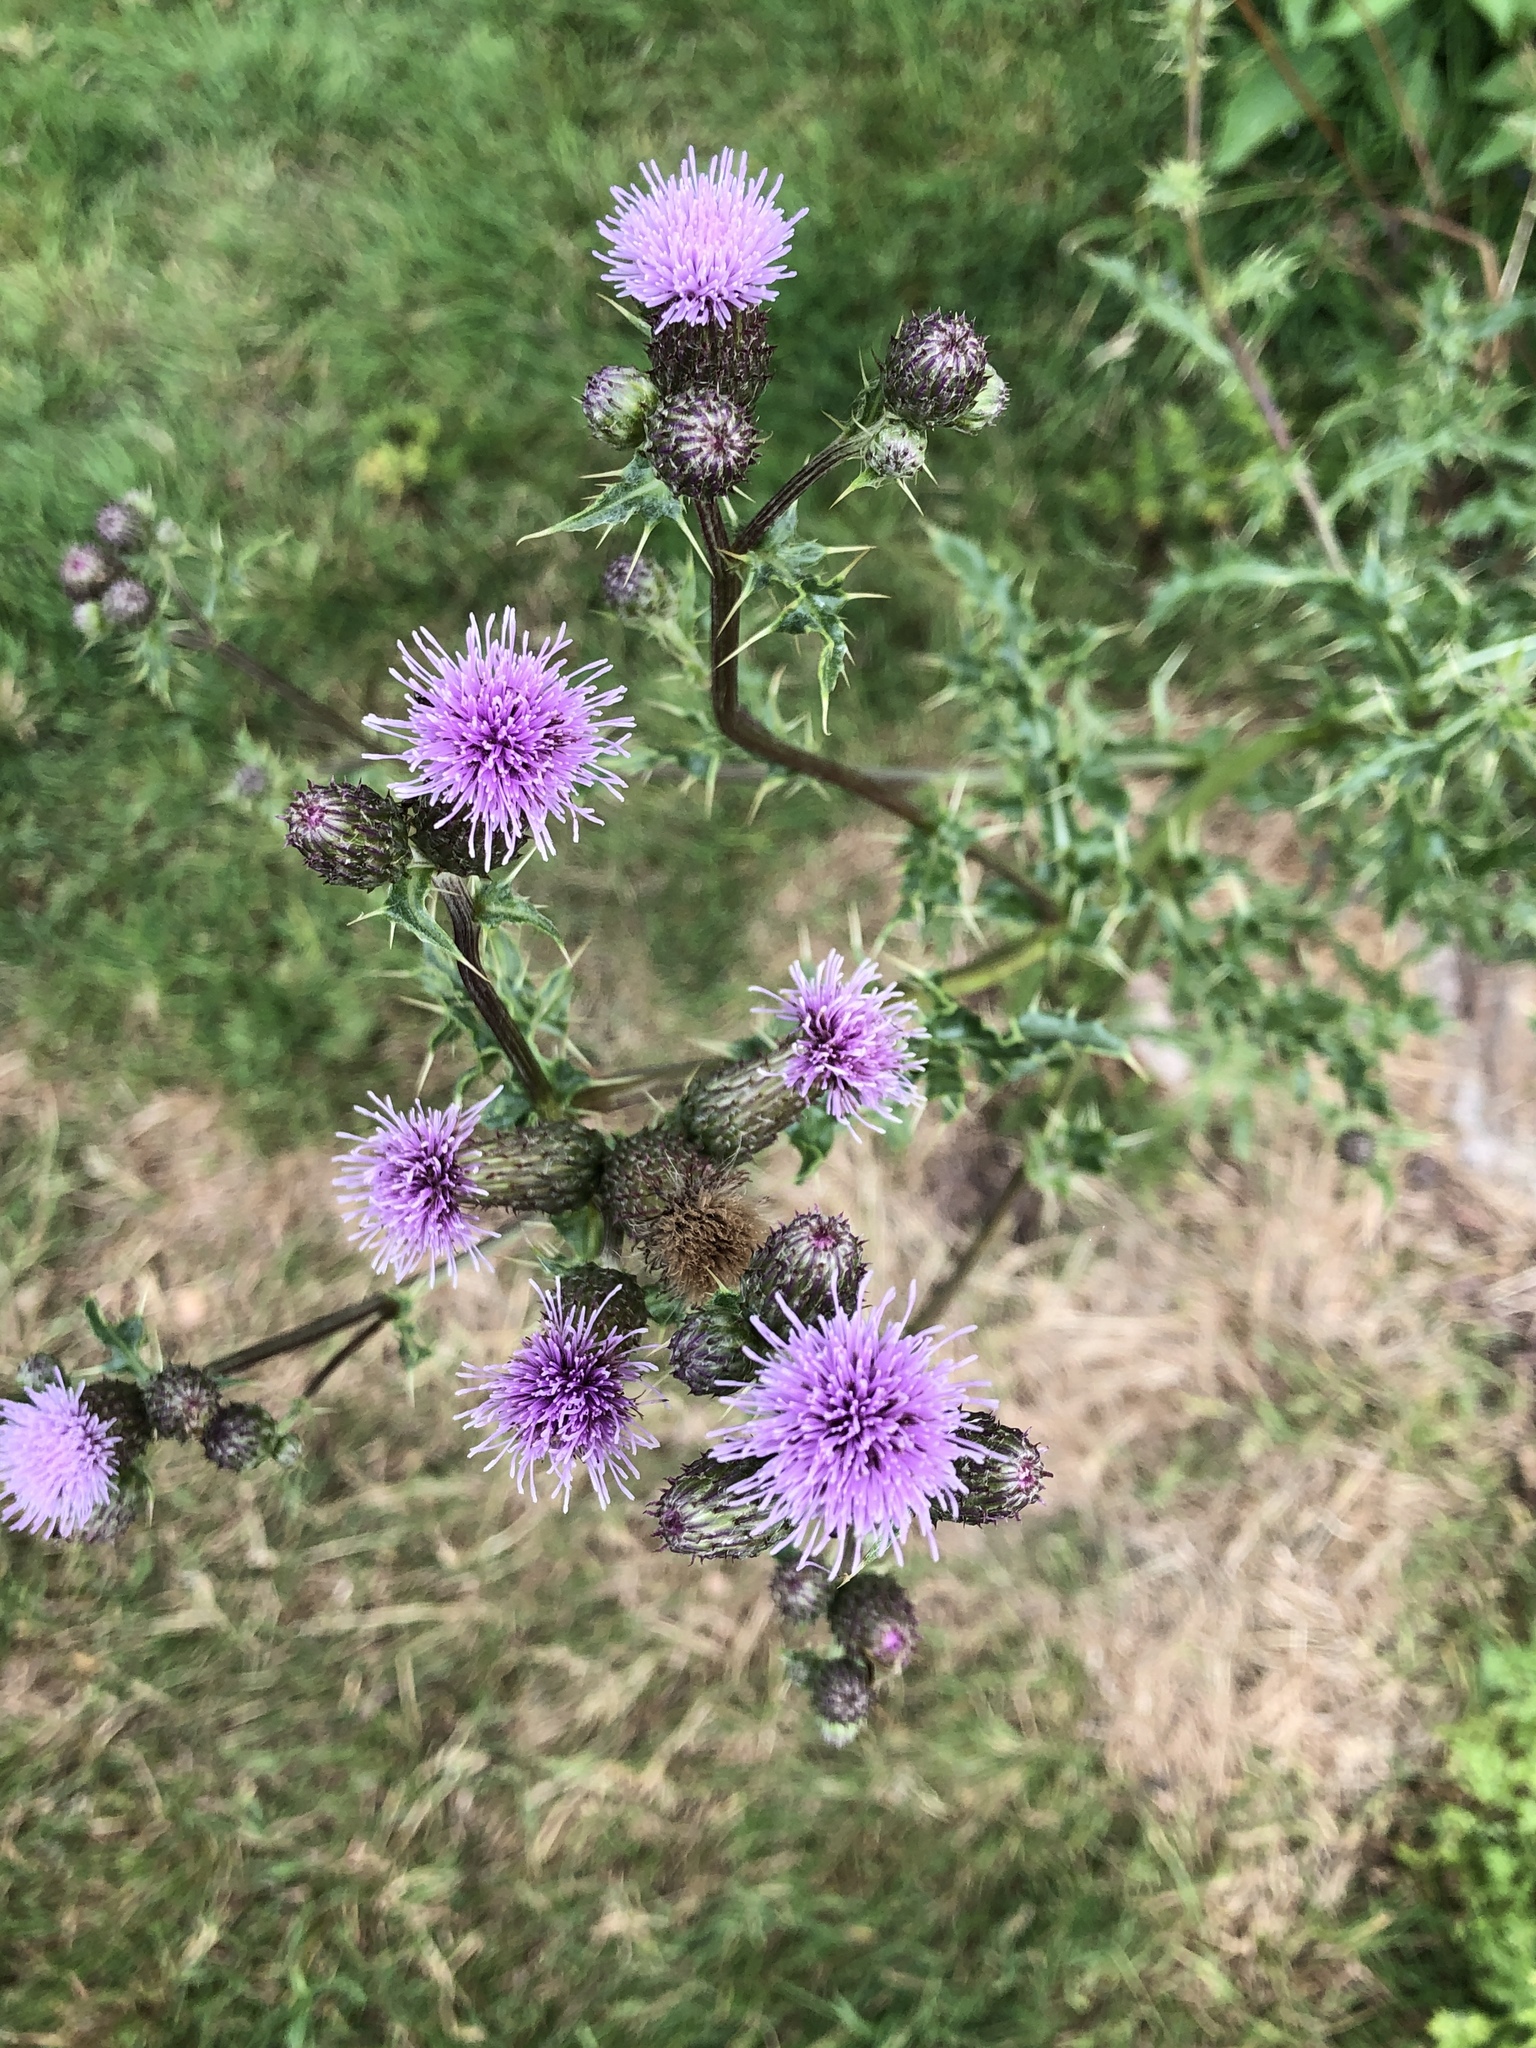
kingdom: Plantae
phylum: Tracheophyta
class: Magnoliopsida
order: Asterales
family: Asteraceae
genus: Cirsium
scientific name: Cirsium arvense
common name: Creeping thistle
